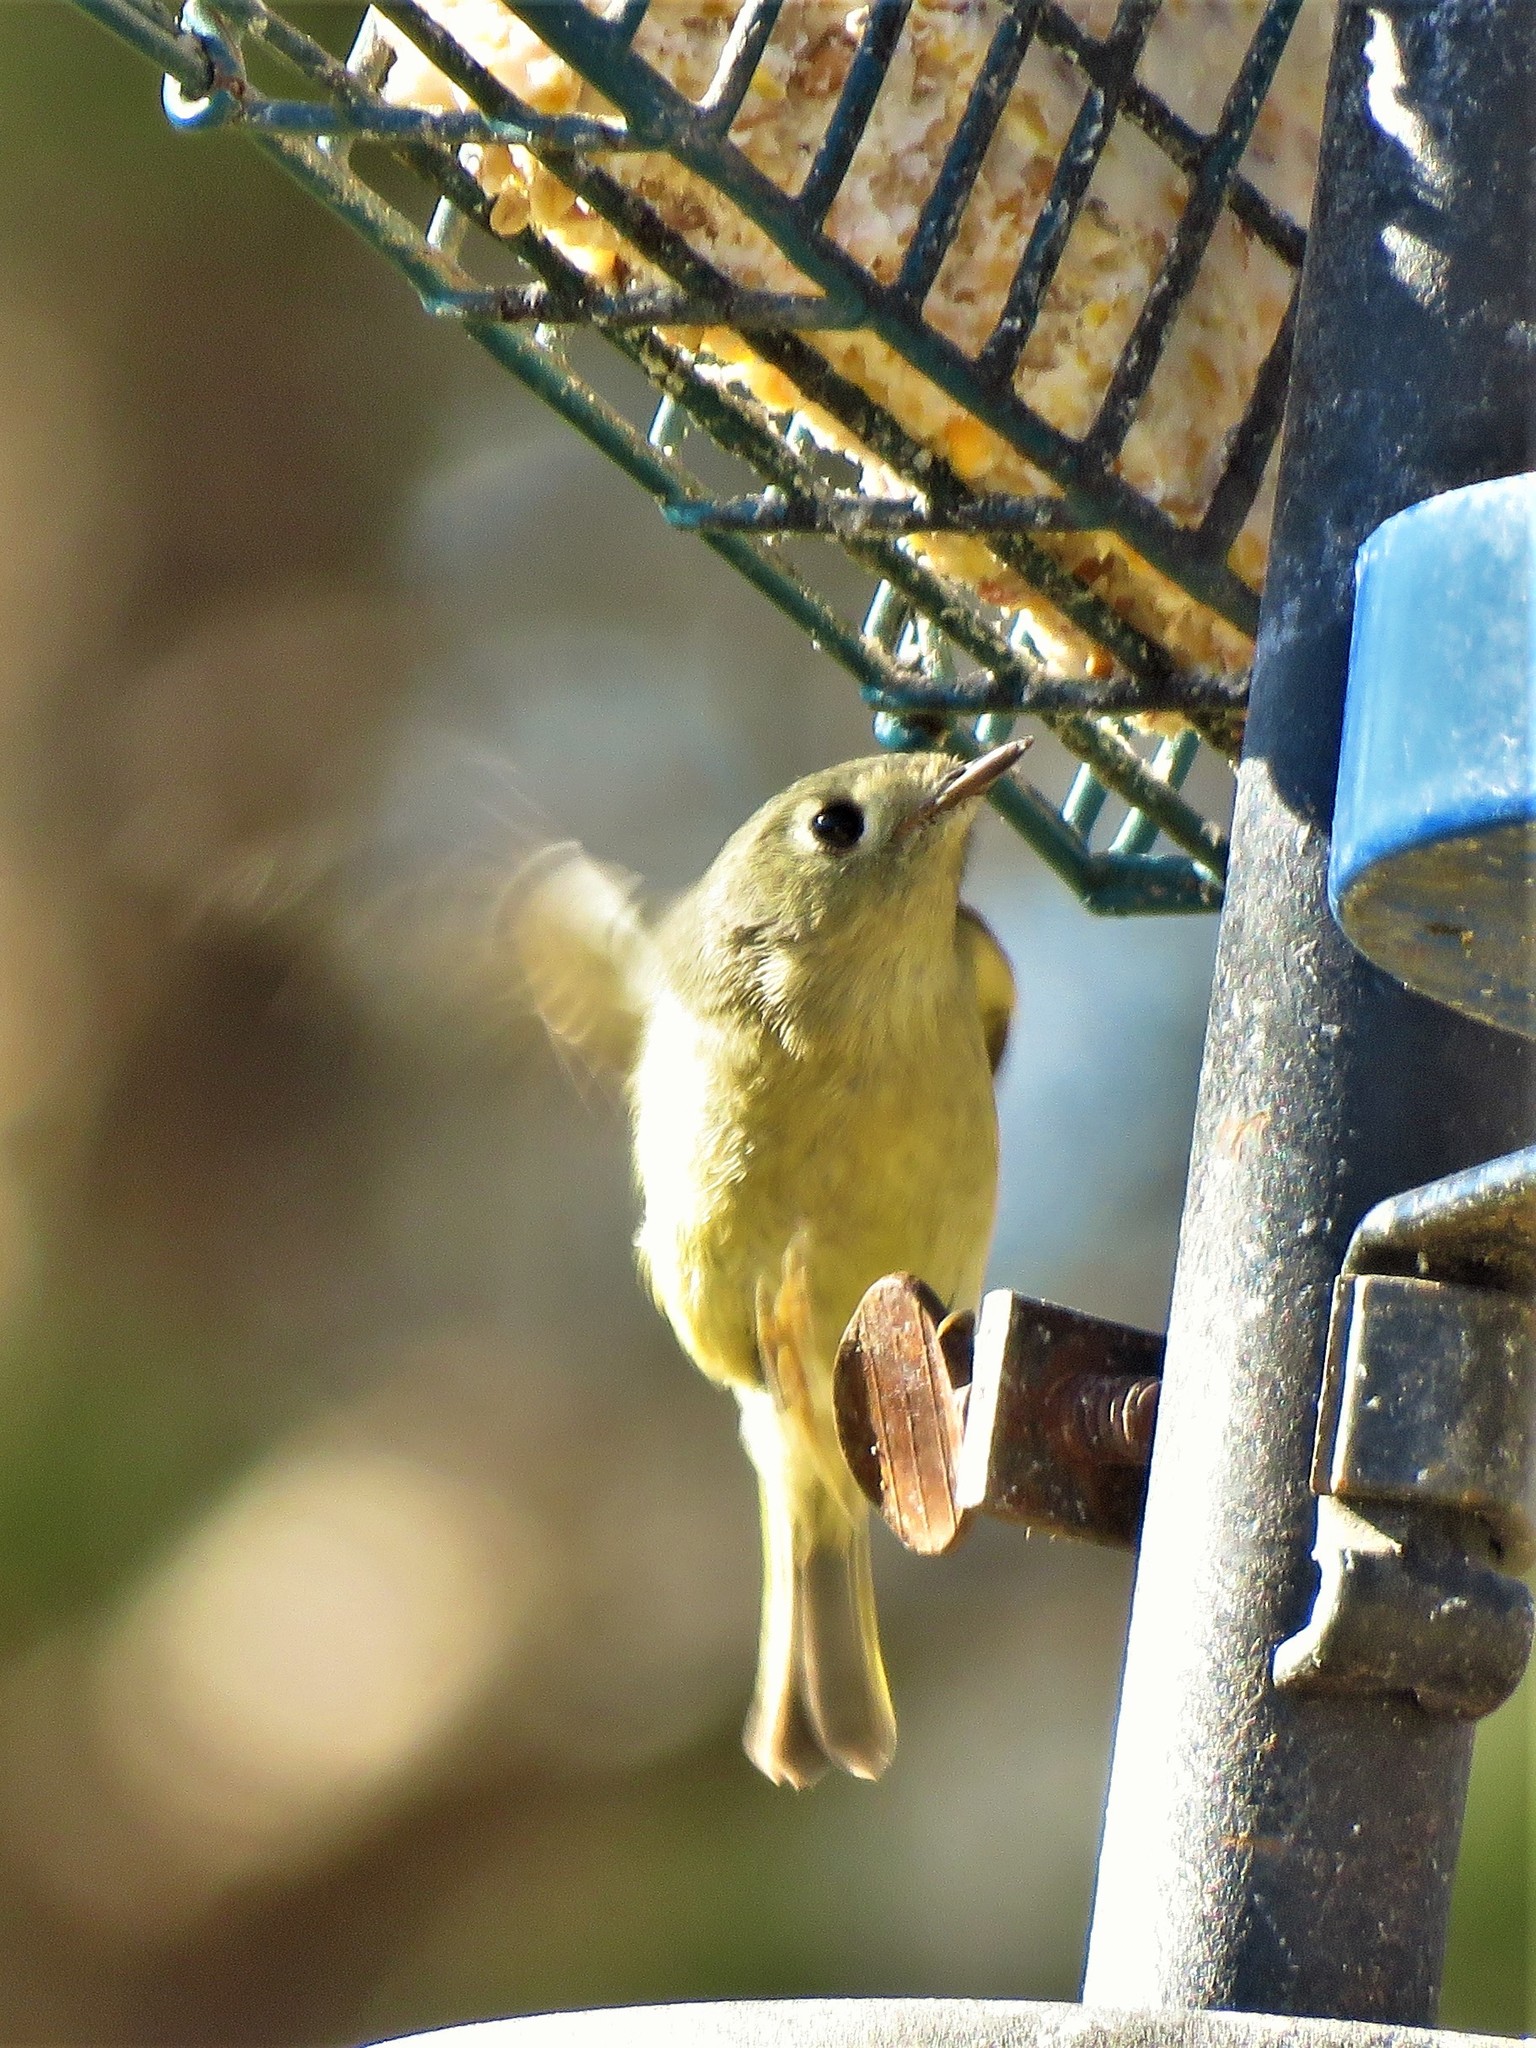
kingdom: Animalia
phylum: Chordata
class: Aves
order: Passeriformes
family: Regulidae
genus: Regulus
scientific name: Regulus calendula
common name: Ruby-crowned kinglet
